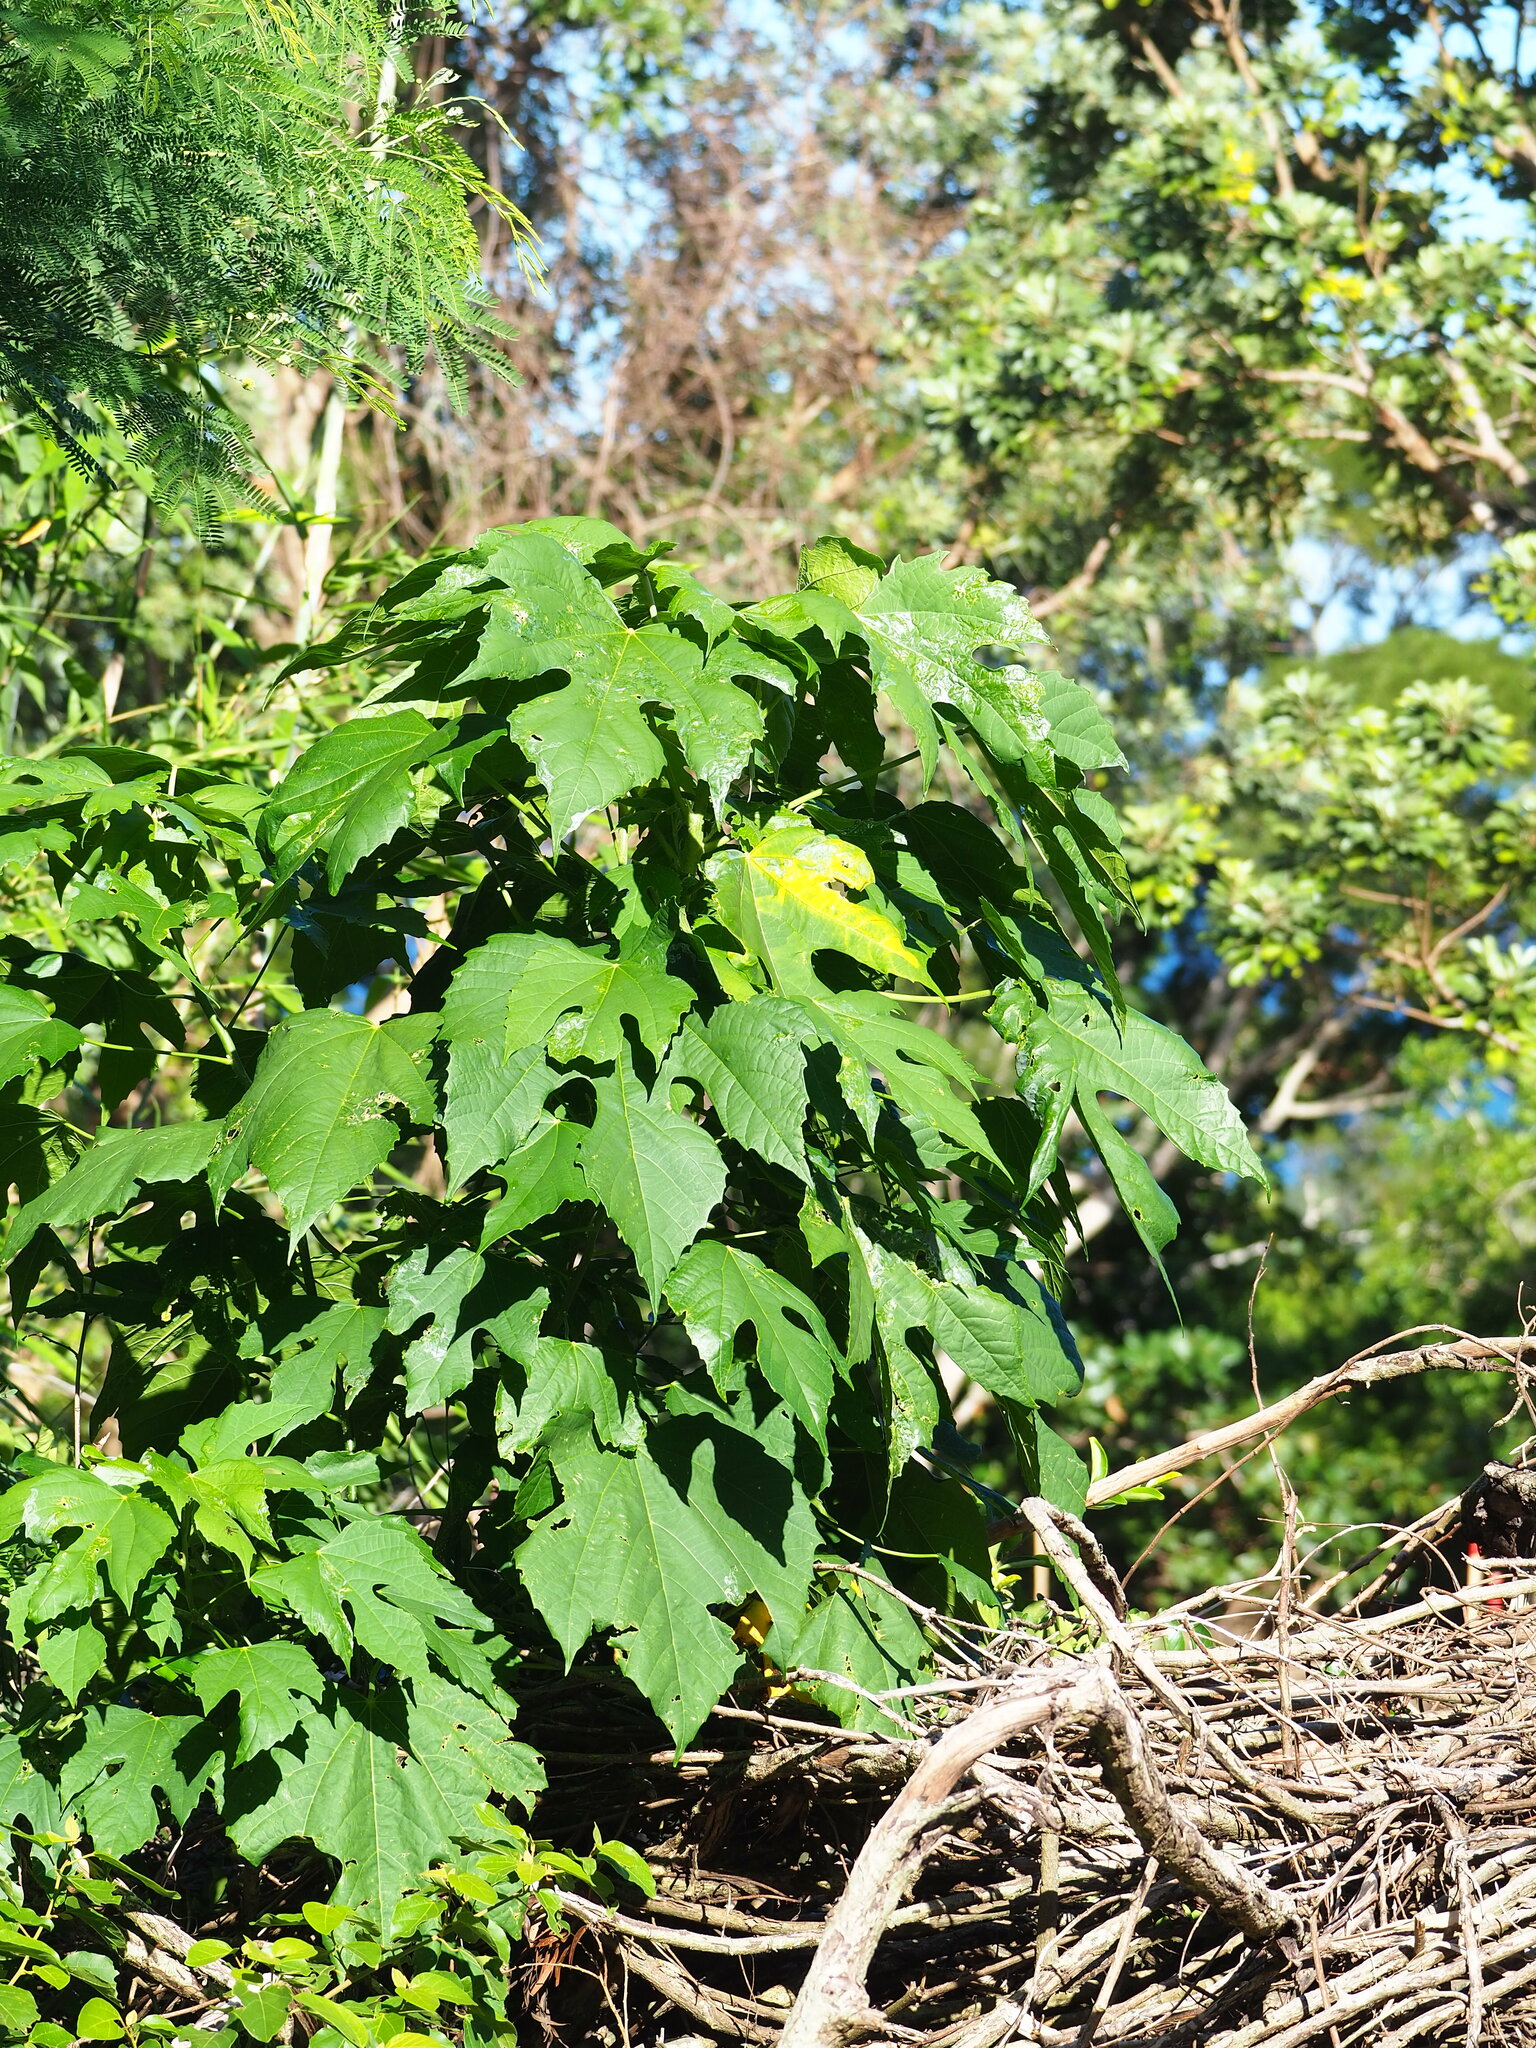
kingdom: Plantae
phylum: Tracheophyta
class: Magnoliopsida
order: Malpighiales
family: Euphorbiaceae
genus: Melanolepis
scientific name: Melanolepis multiglandulosa
